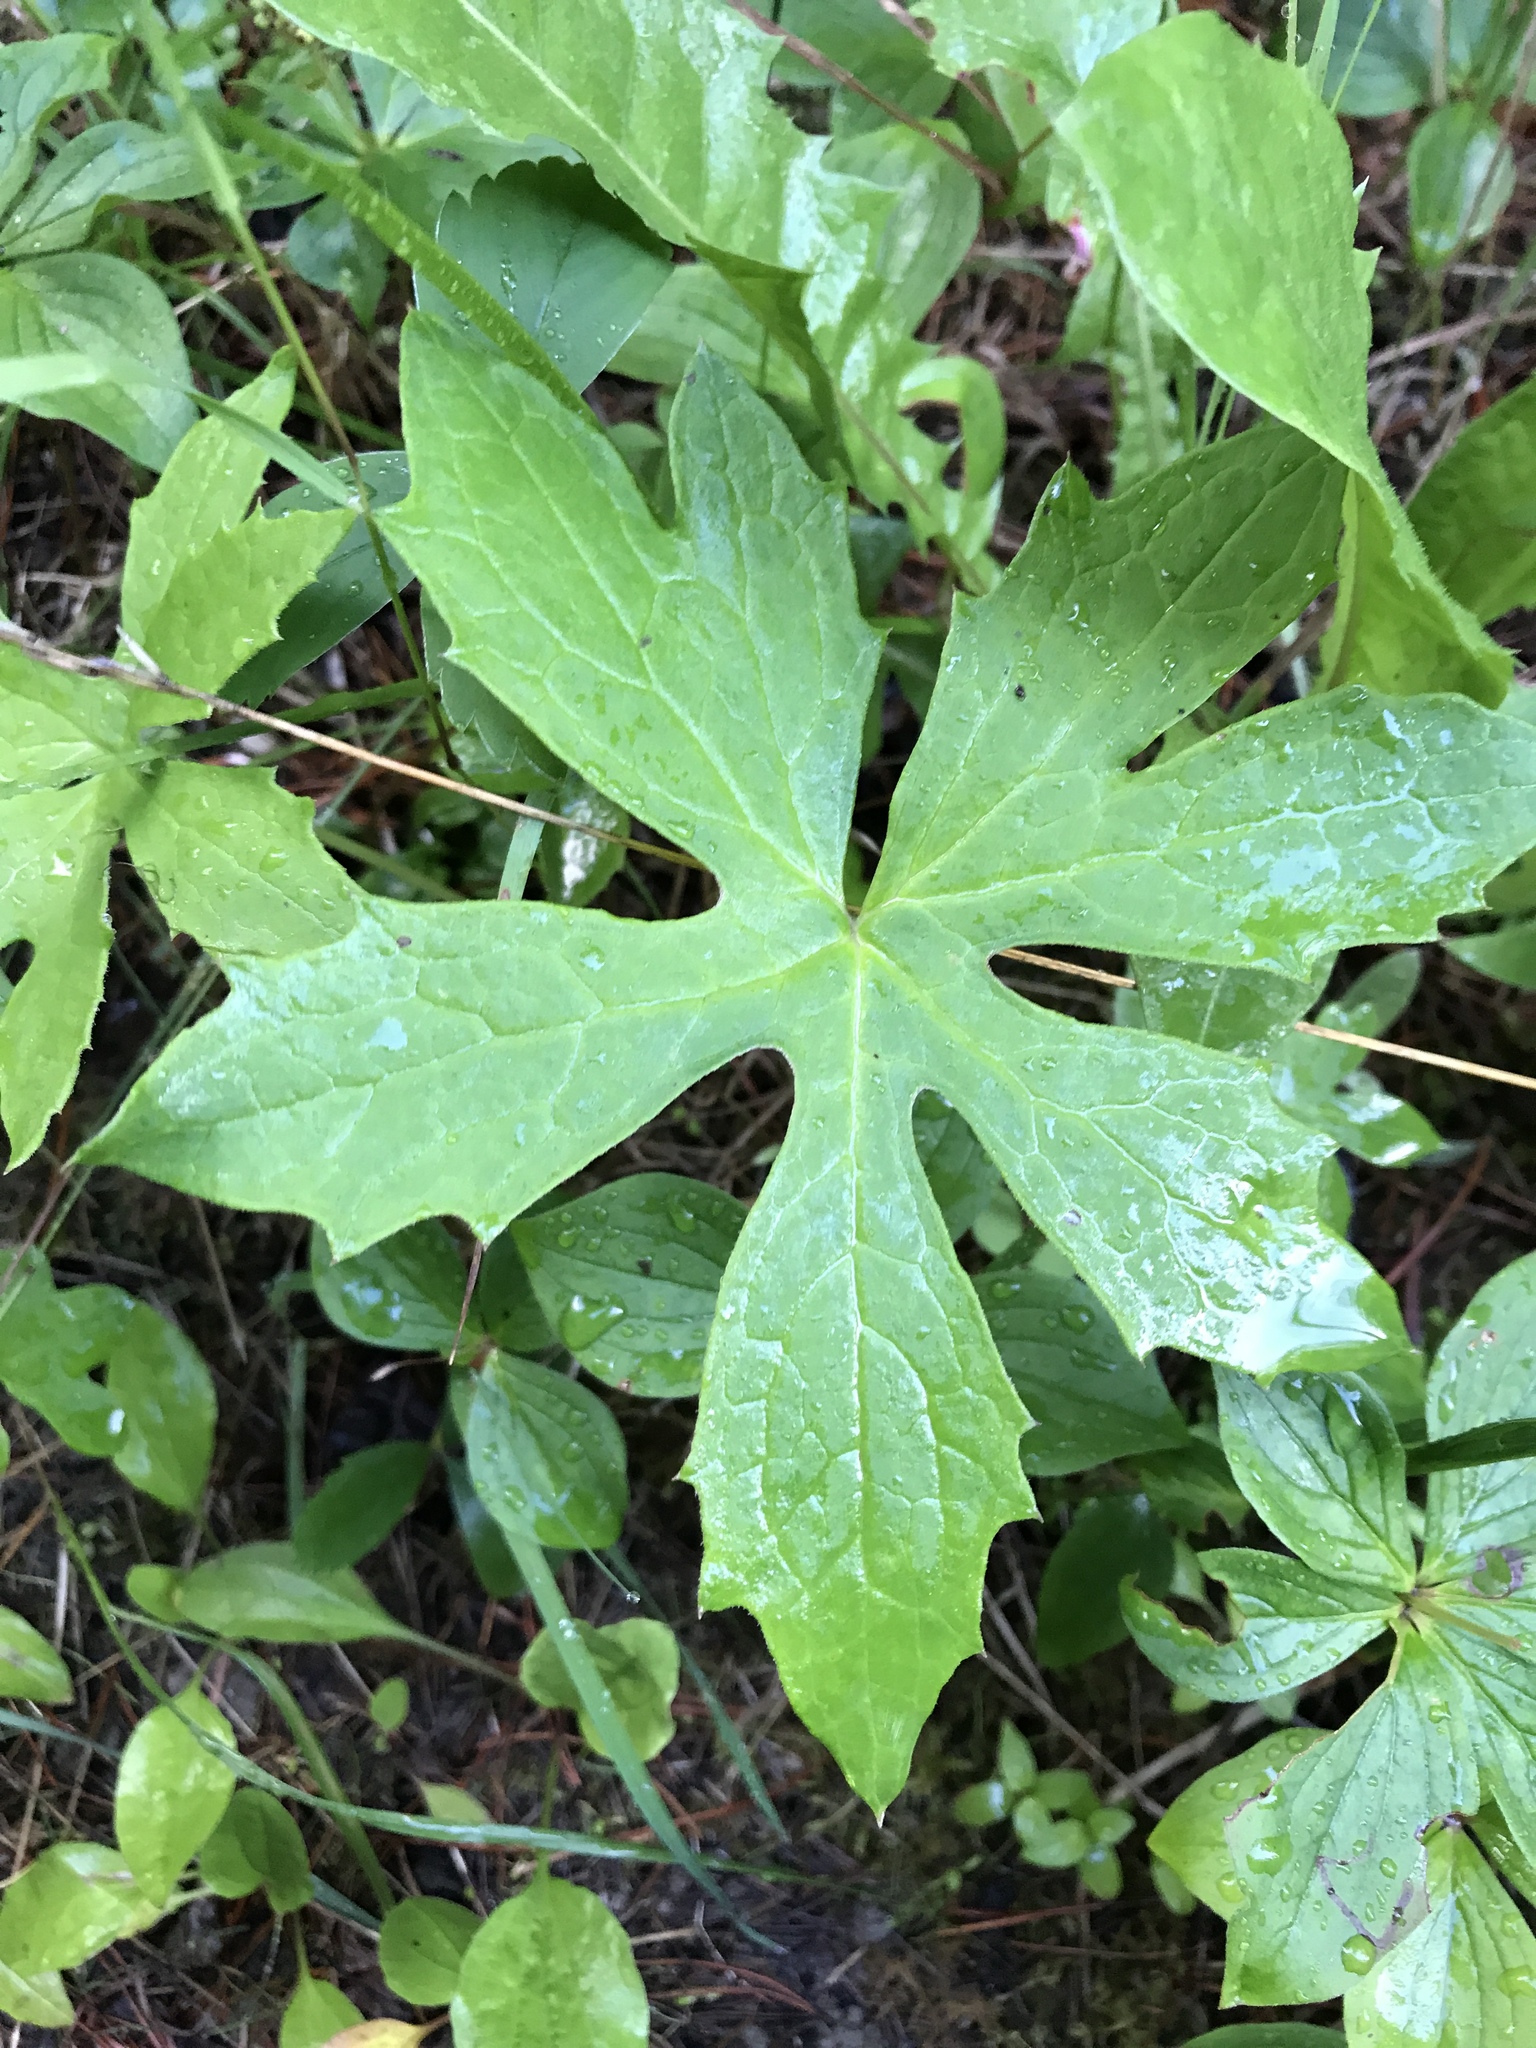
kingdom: Plantae
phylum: Tracheophyta
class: Magnoliopsida
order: Asterales
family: Asteraceae
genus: Petasites
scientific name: Petasites frigidus
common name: Arctic butterbur
